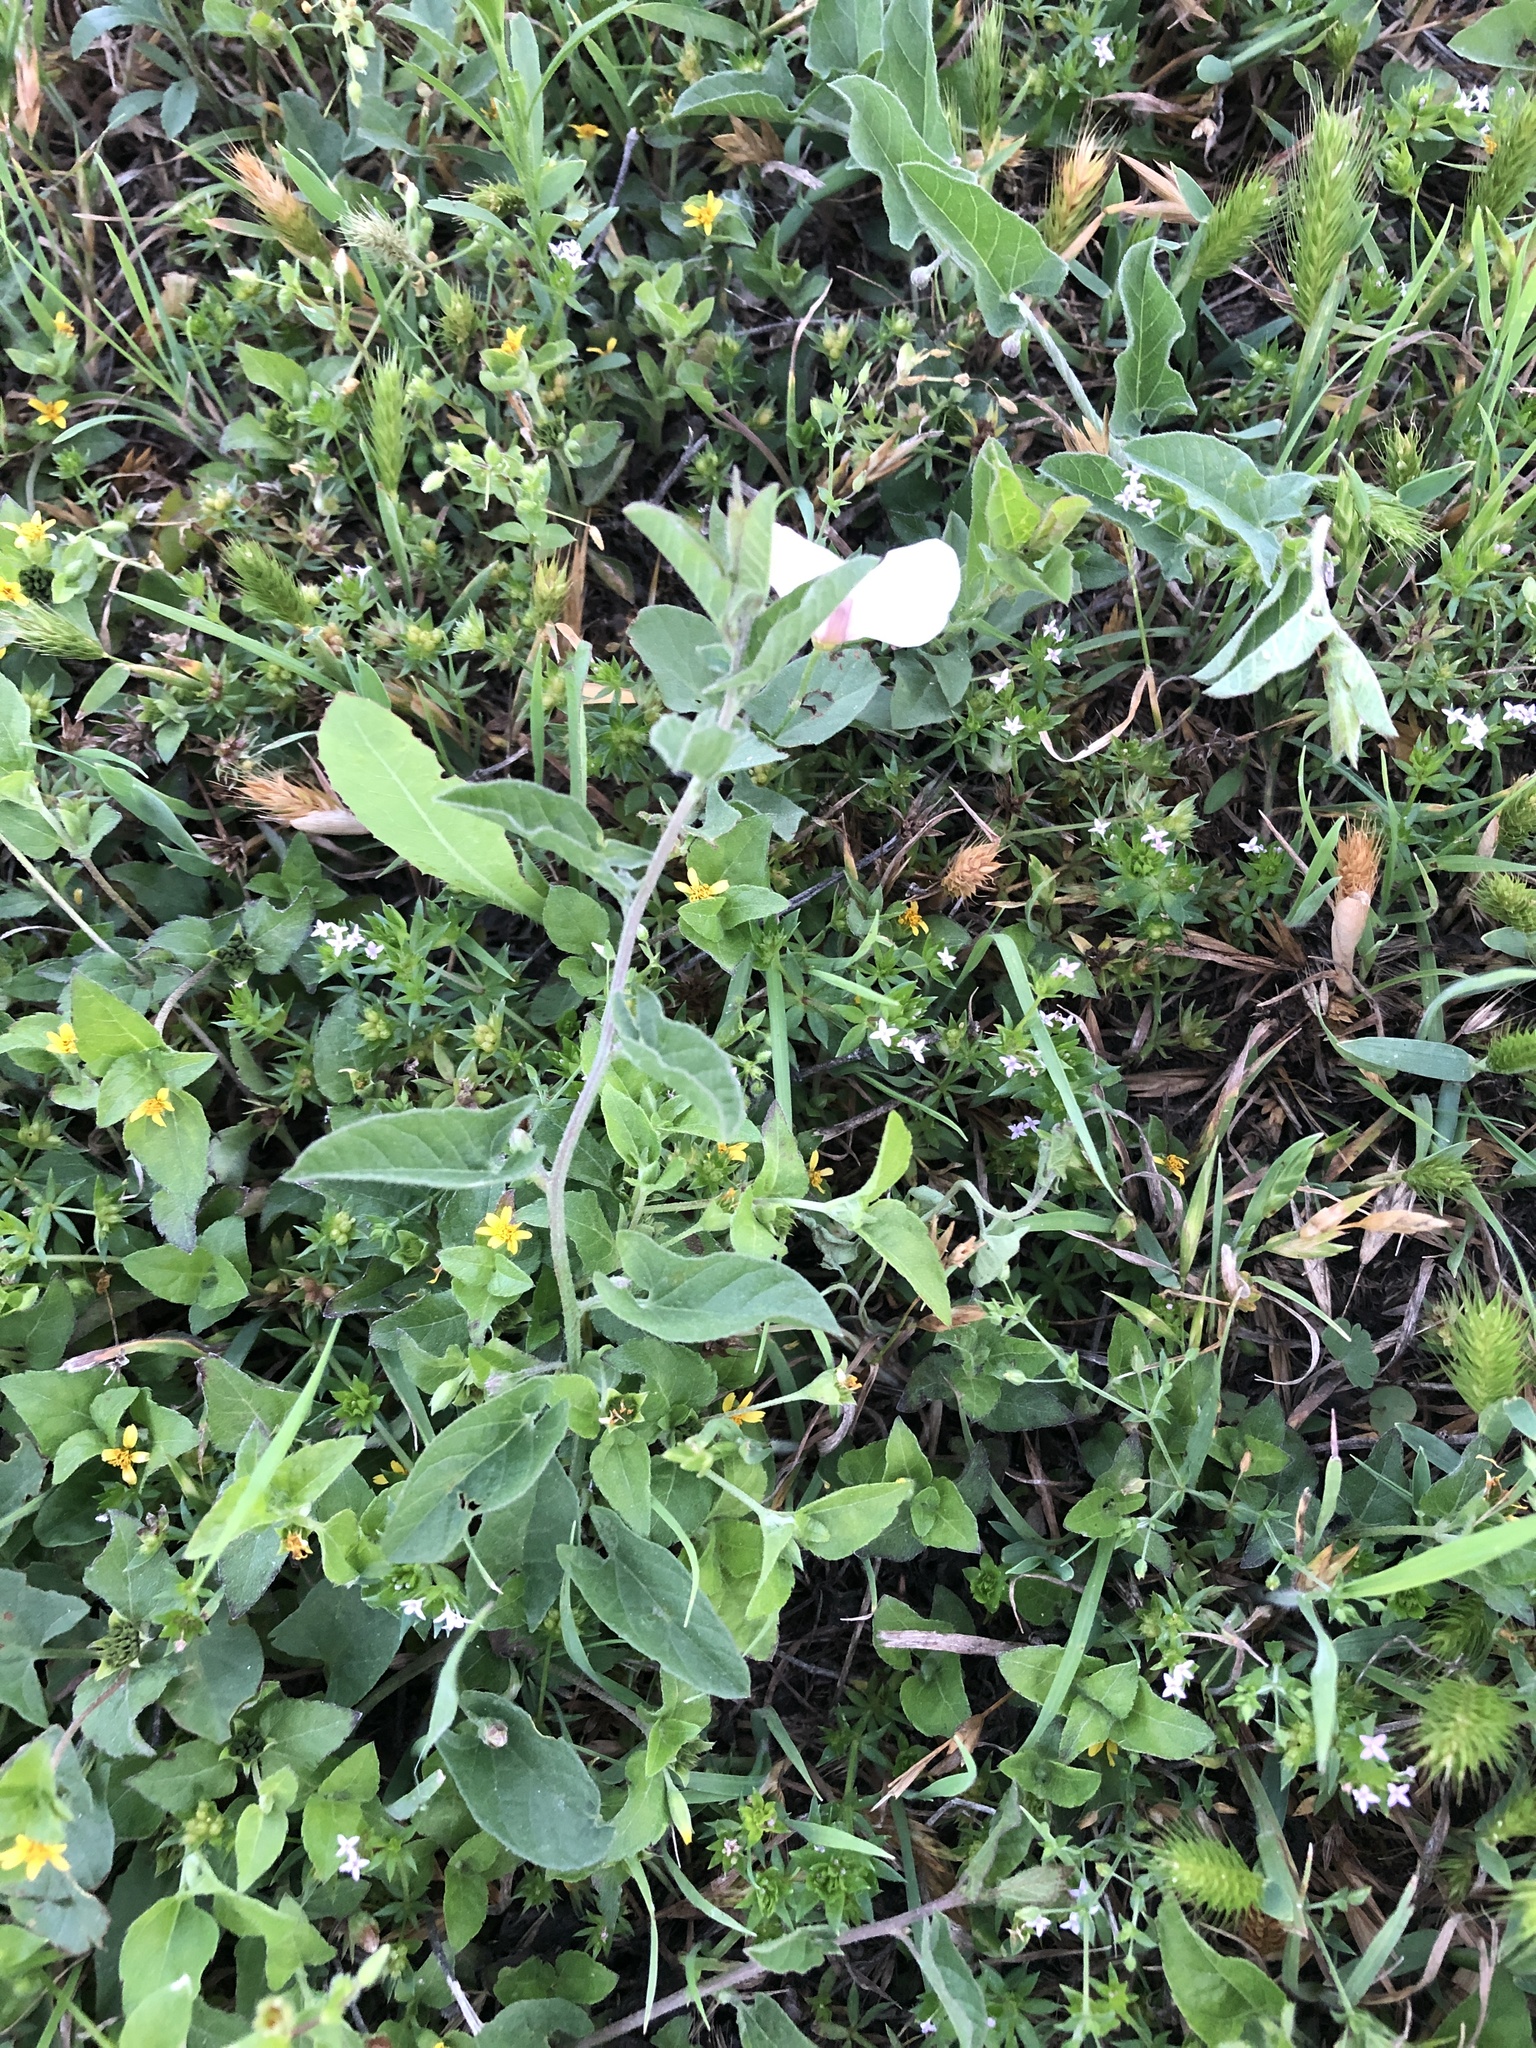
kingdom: Plantae
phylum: Tracheophyta
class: Magnoliopsida
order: Solanales
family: Convolvulaceae
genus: Convolvulus
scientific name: Convolvulus arvensis
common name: Field bindweed
